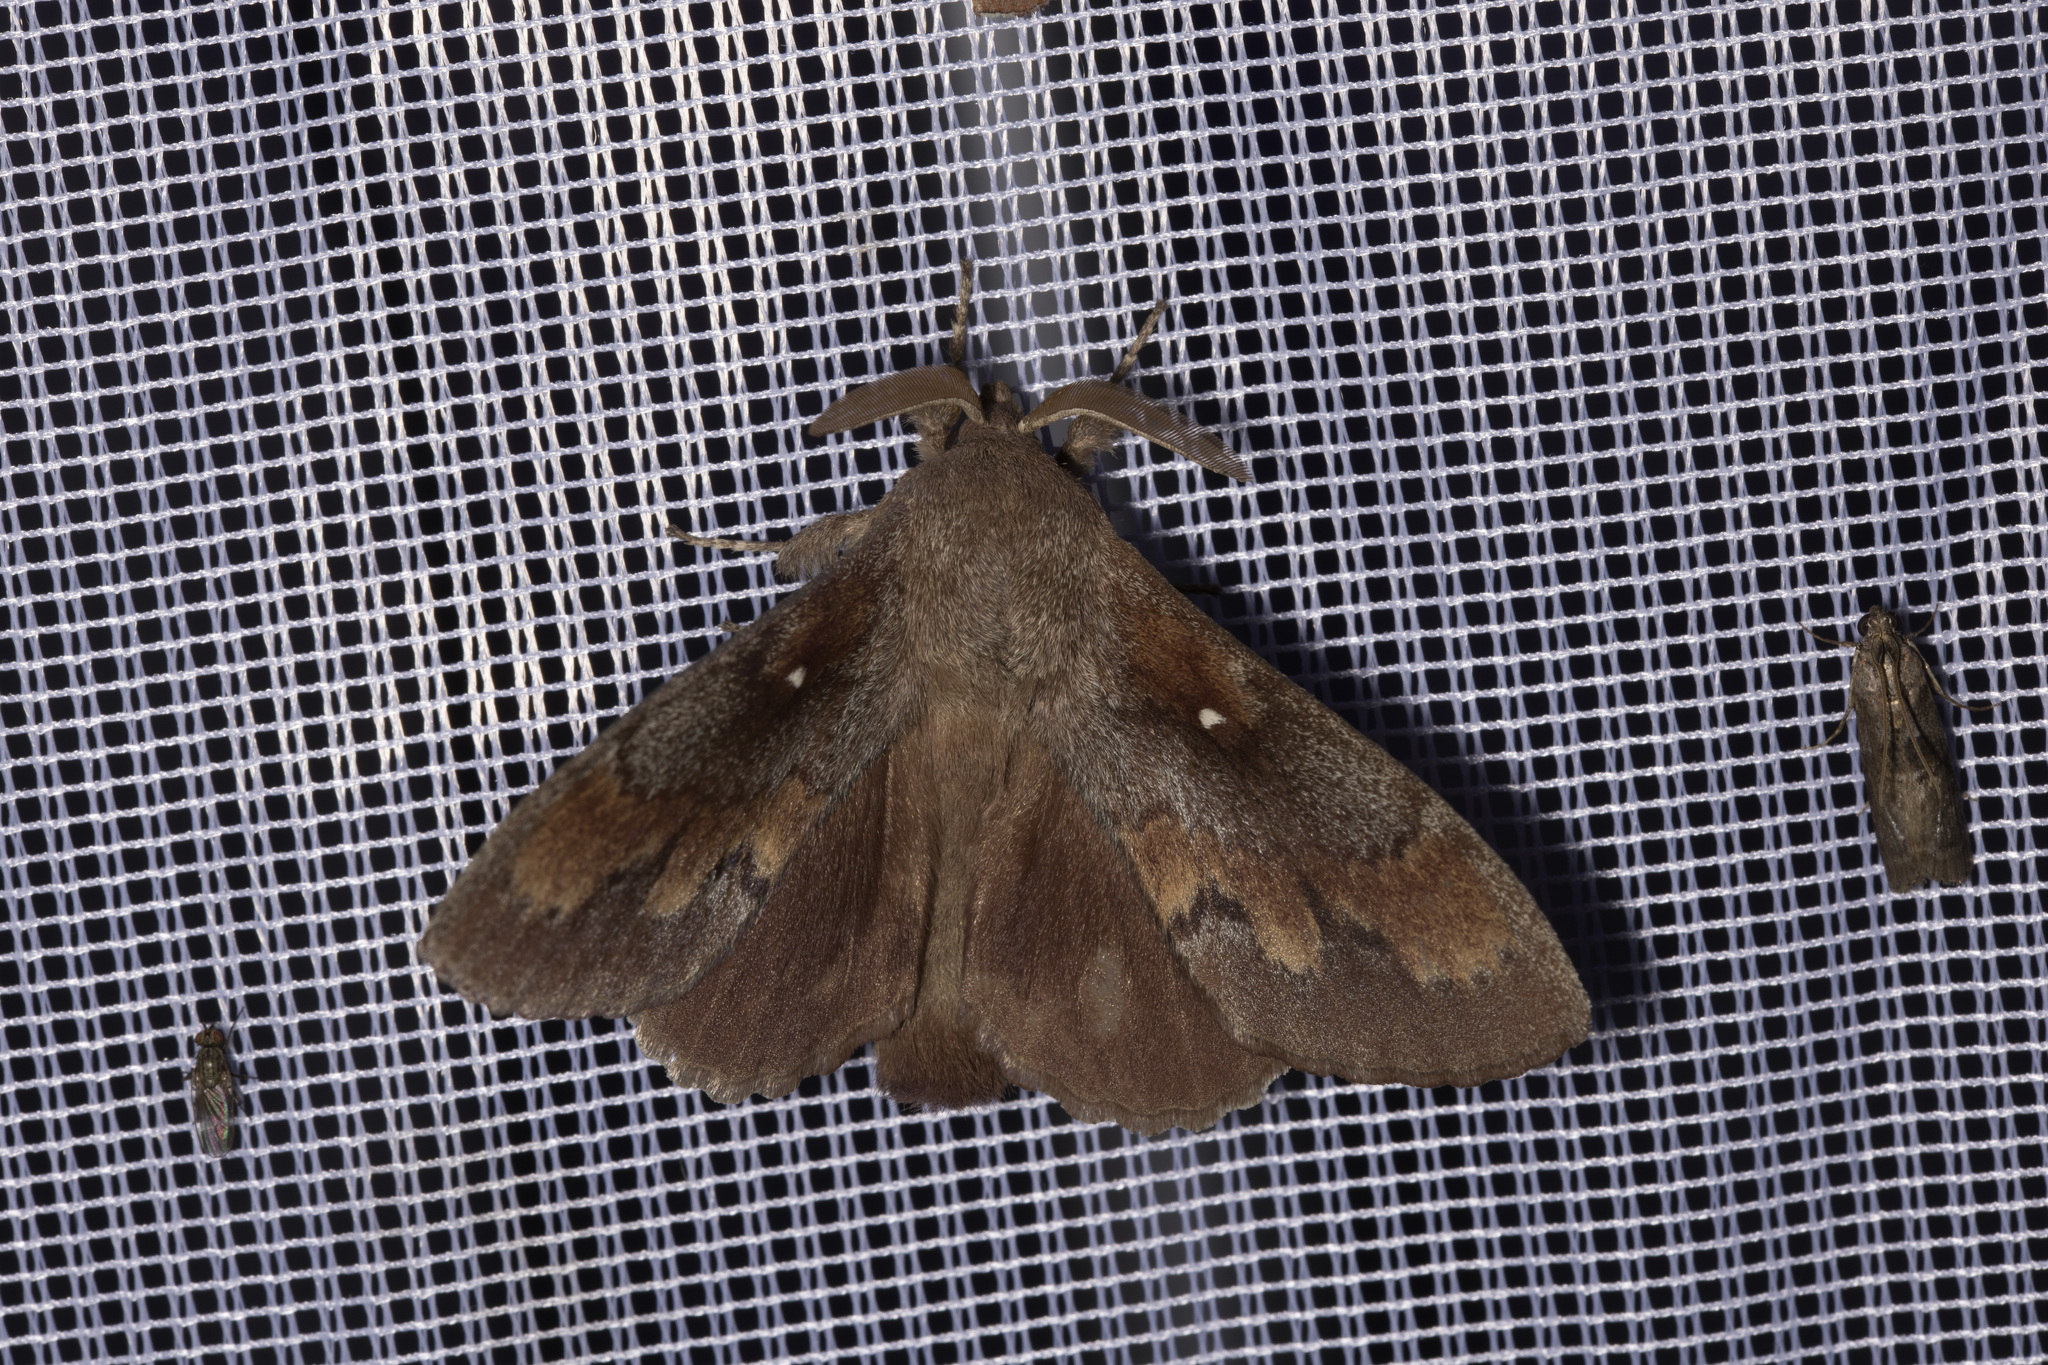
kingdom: Animalia
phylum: Arthropoda
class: Insecta
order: Lepidoptera
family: Lasiocampidae
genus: Dendrolimus
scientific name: Dendrolimus pini
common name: Pine-tree lappet
